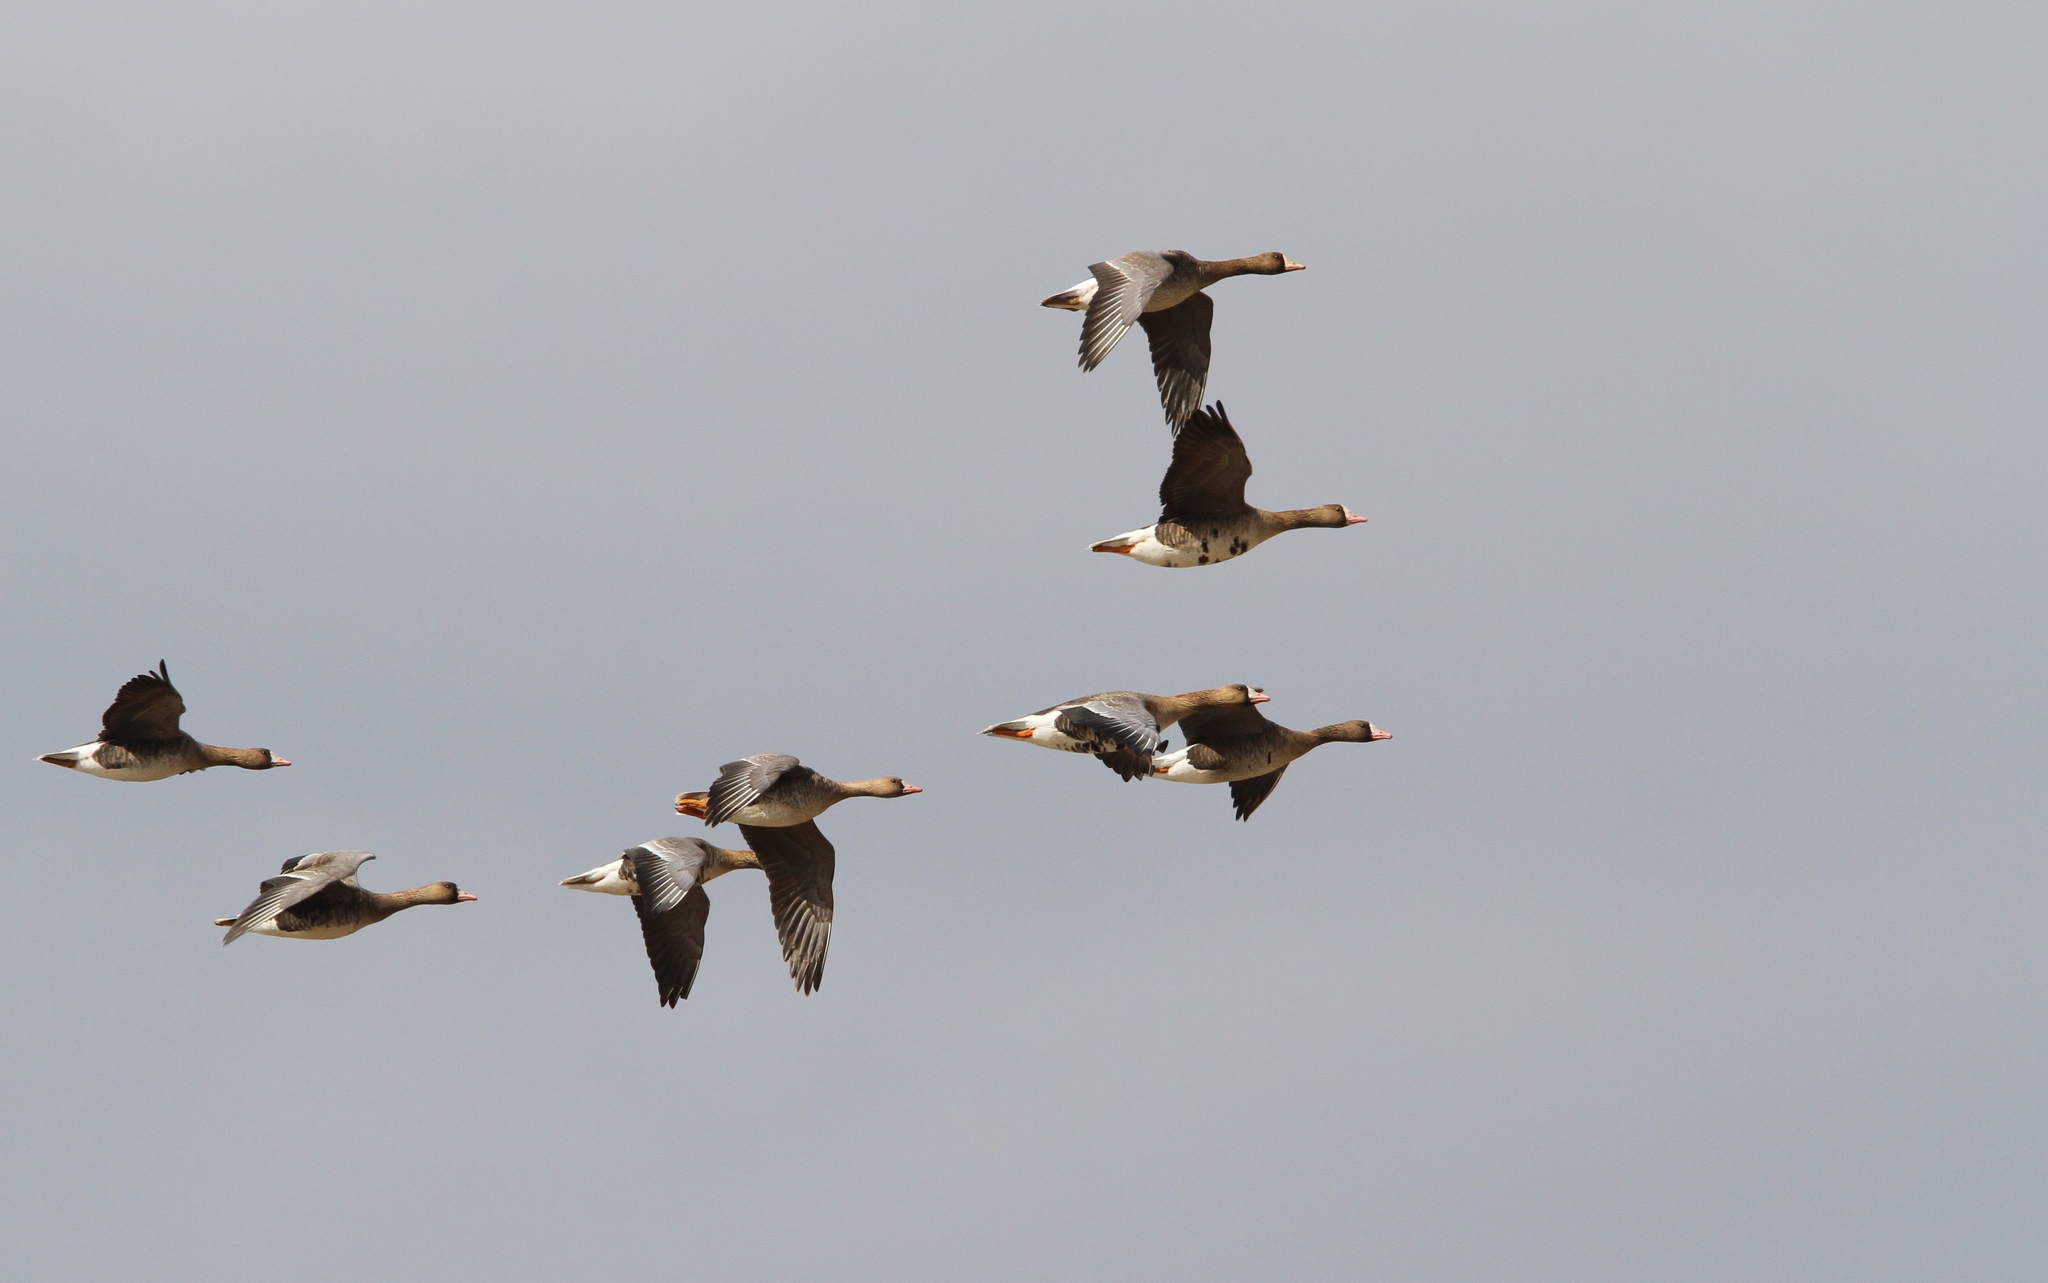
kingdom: Animalia
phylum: Chordata
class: Aves
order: Anseriformes
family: Anatidae
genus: Anser
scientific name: Anser albifrons
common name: Greater white-fronted goose
